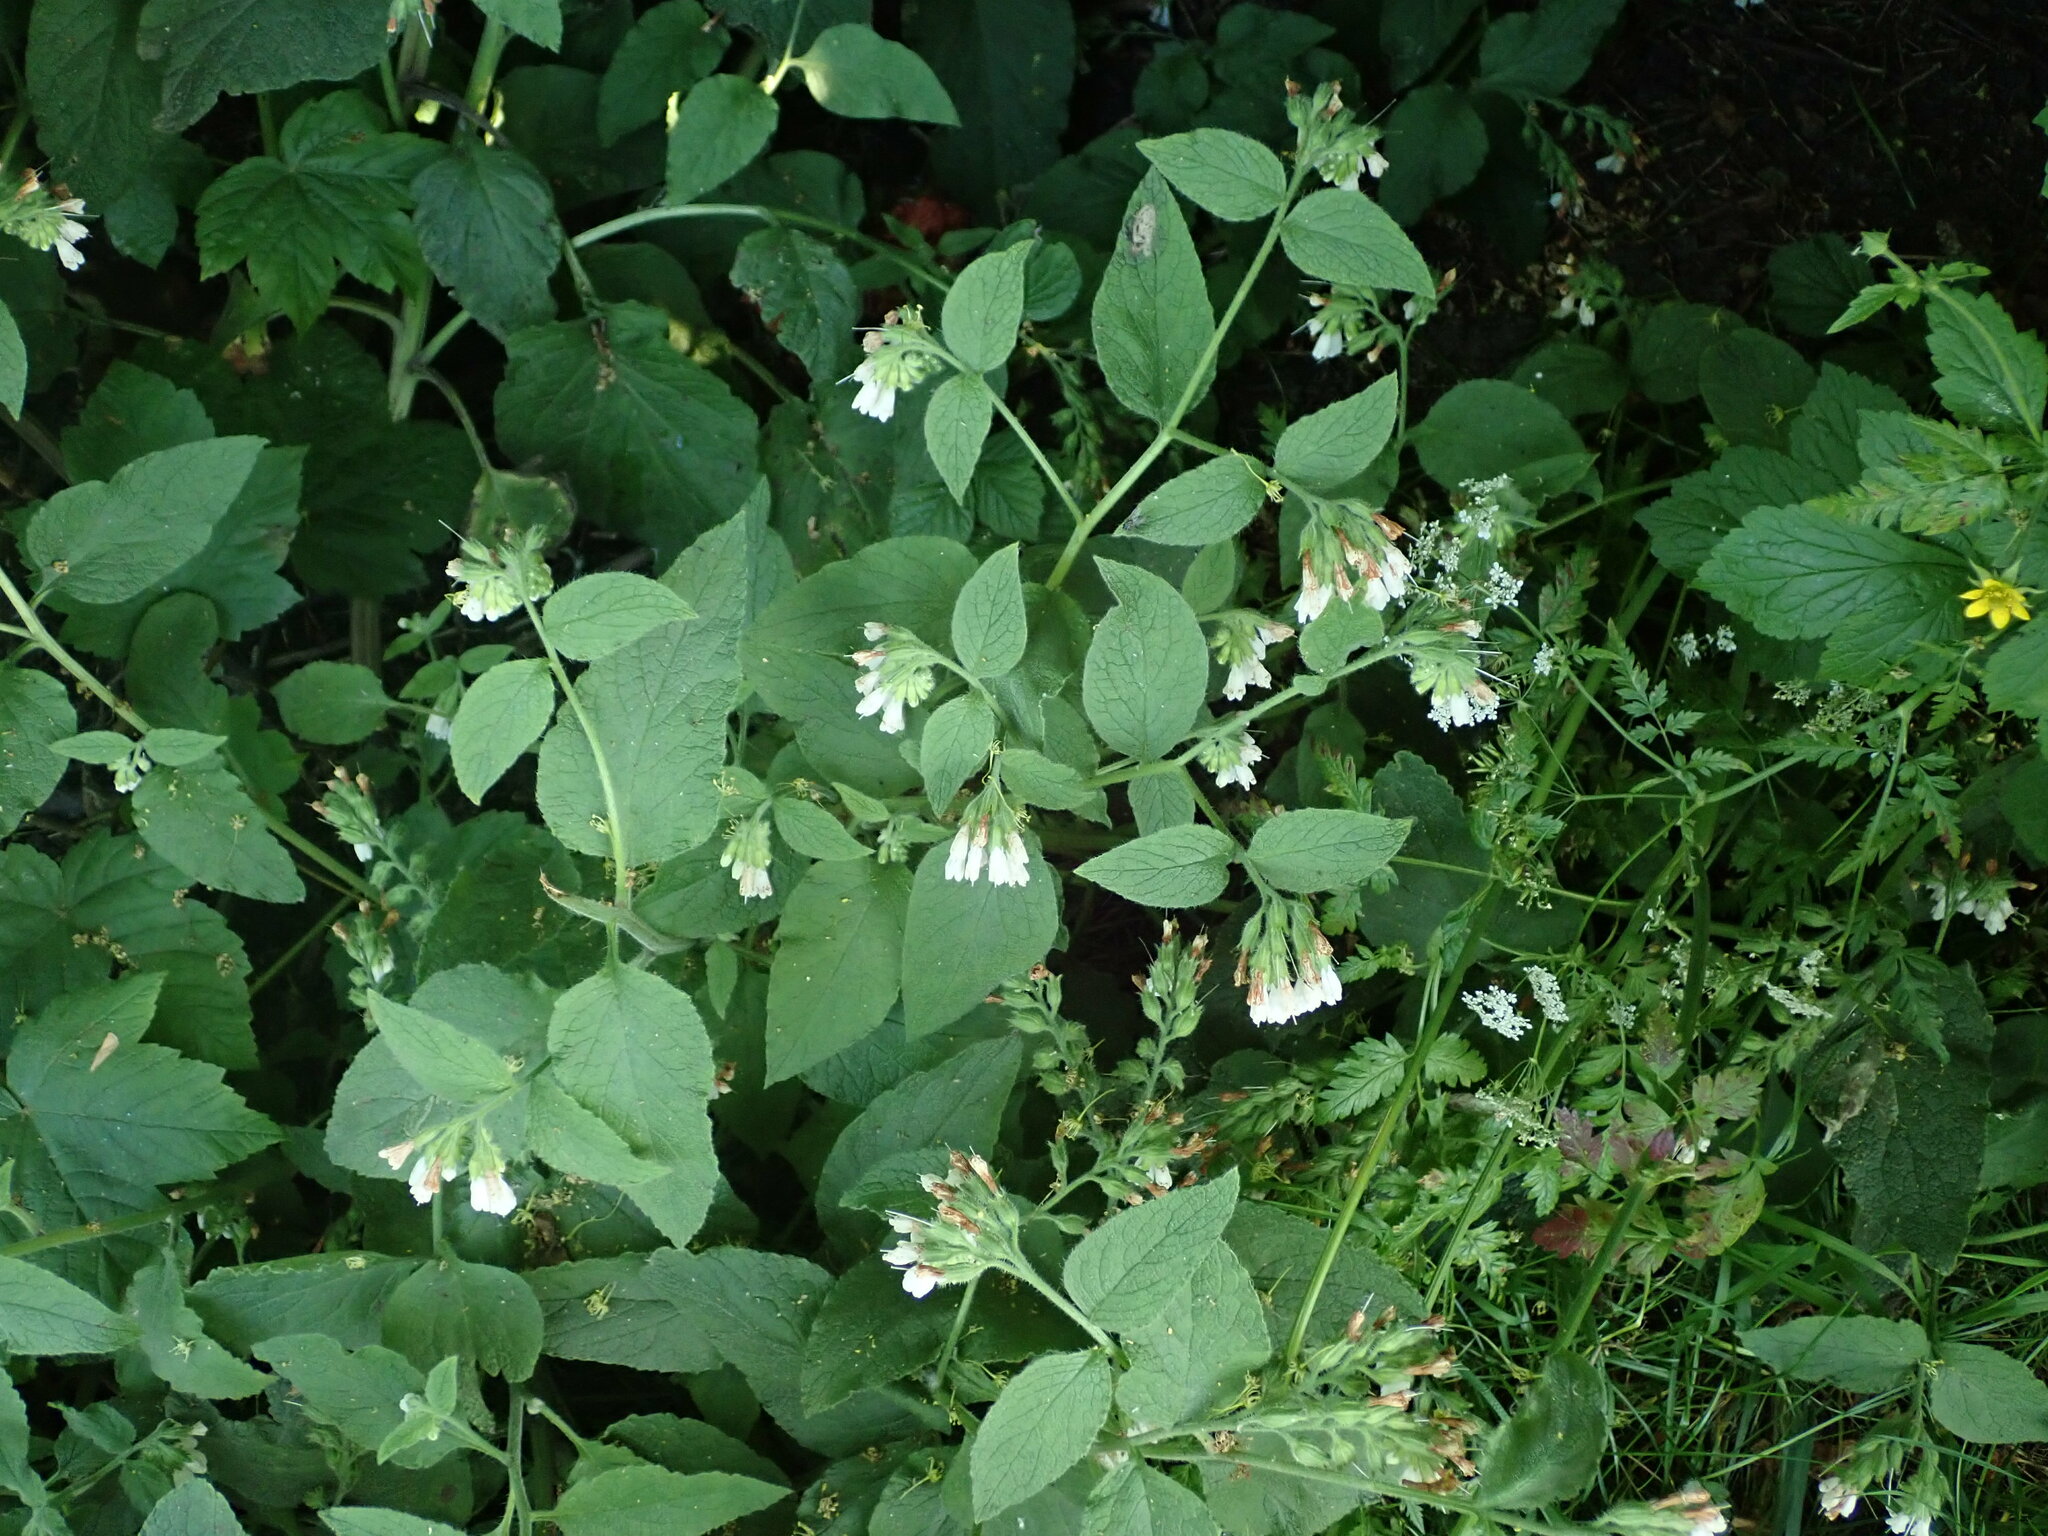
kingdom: Plantae
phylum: Tracheophyta
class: Magnoliopsida
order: Boraginales
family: Boraginaceae
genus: Symphytum
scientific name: Symphytum orientale
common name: White comfrey
